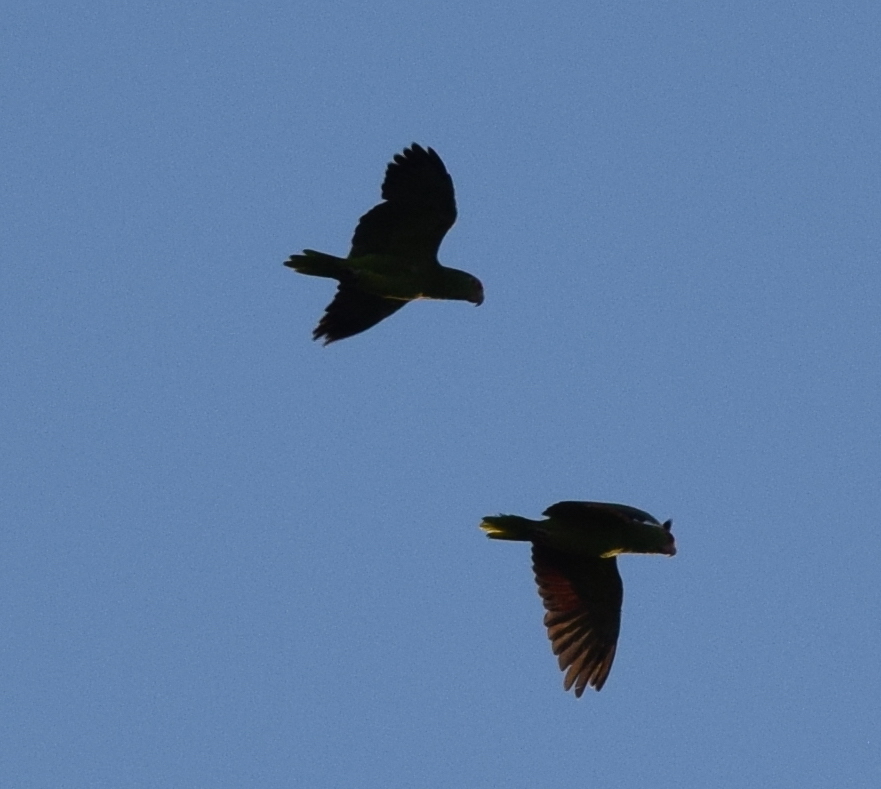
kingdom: Animalia
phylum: Chordata
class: Aves
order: Psittaciformes
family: Psittacidae
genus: Amazona
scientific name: Amazona
